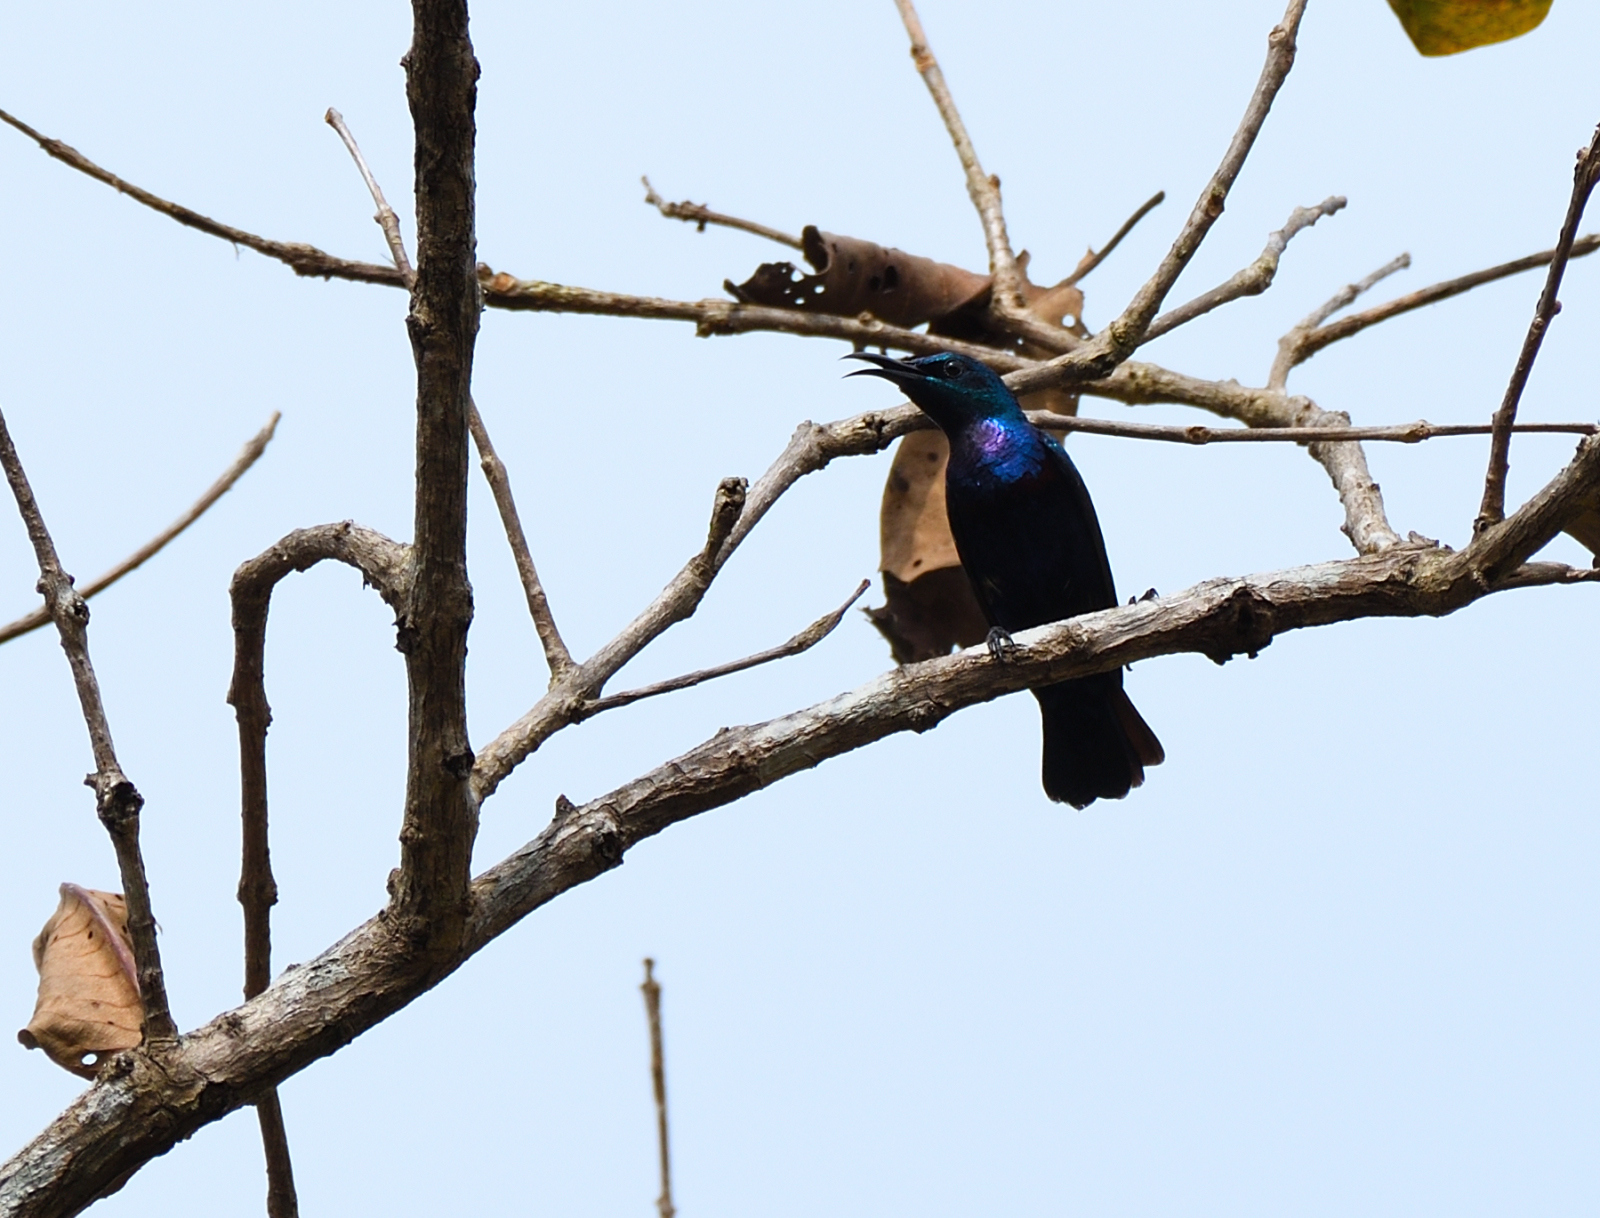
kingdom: Animalia
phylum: Chordata
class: Aves
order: Passeriformes
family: Nectariniidae
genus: Cinnyris
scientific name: Cinnyris lotenius
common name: Loten's sunbird
